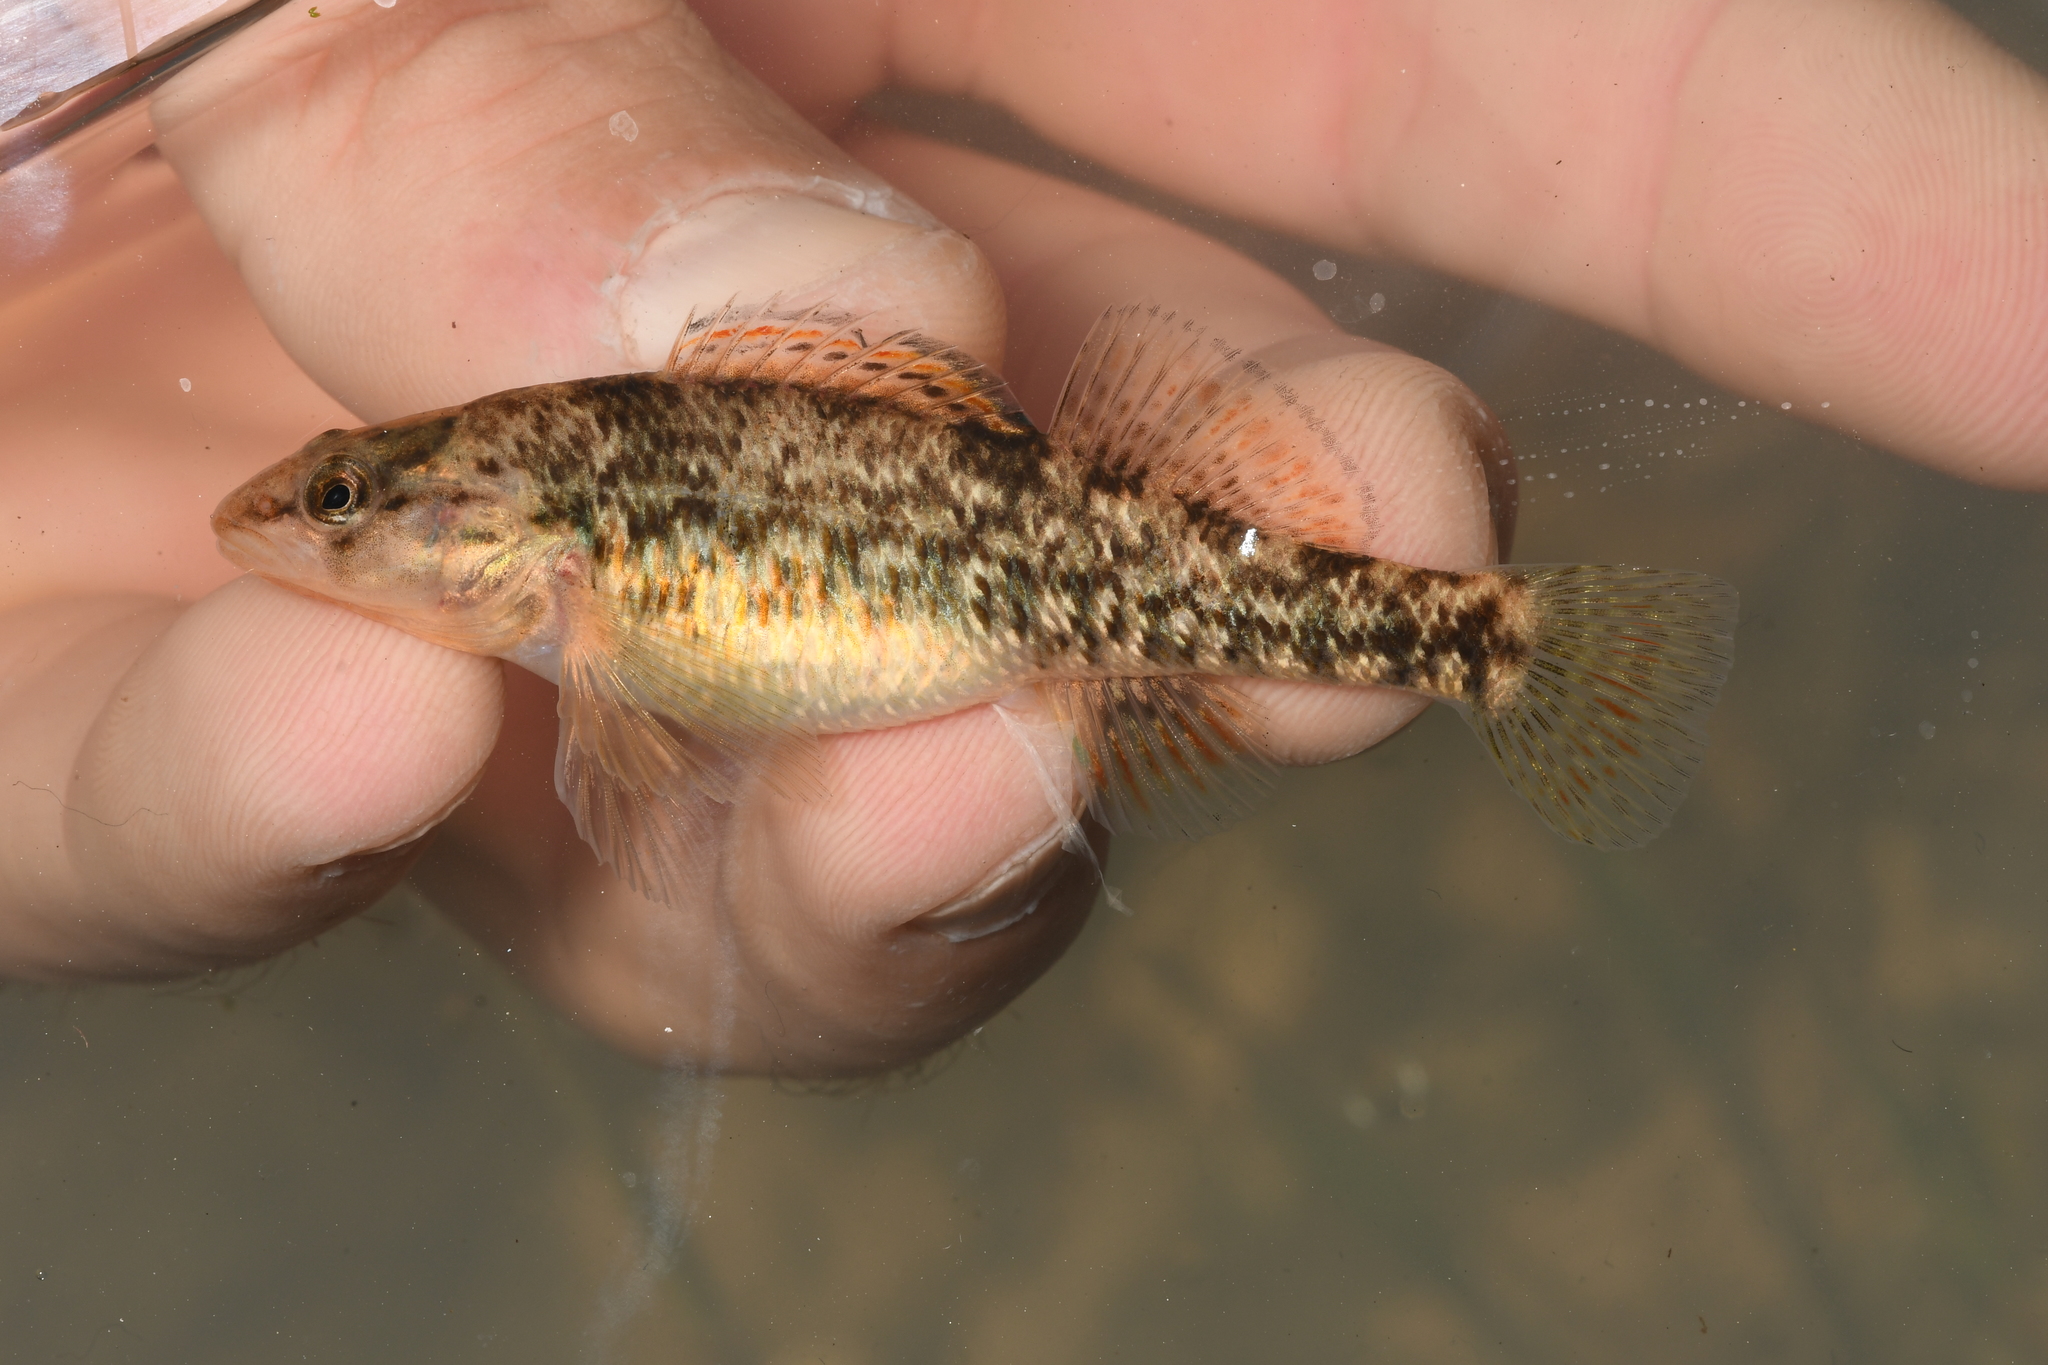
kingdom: Animalia
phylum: Chordata
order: Perciformes
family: Percidae
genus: Etheostoma
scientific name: Etheostoma caeruleum
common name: Rainbow darter
